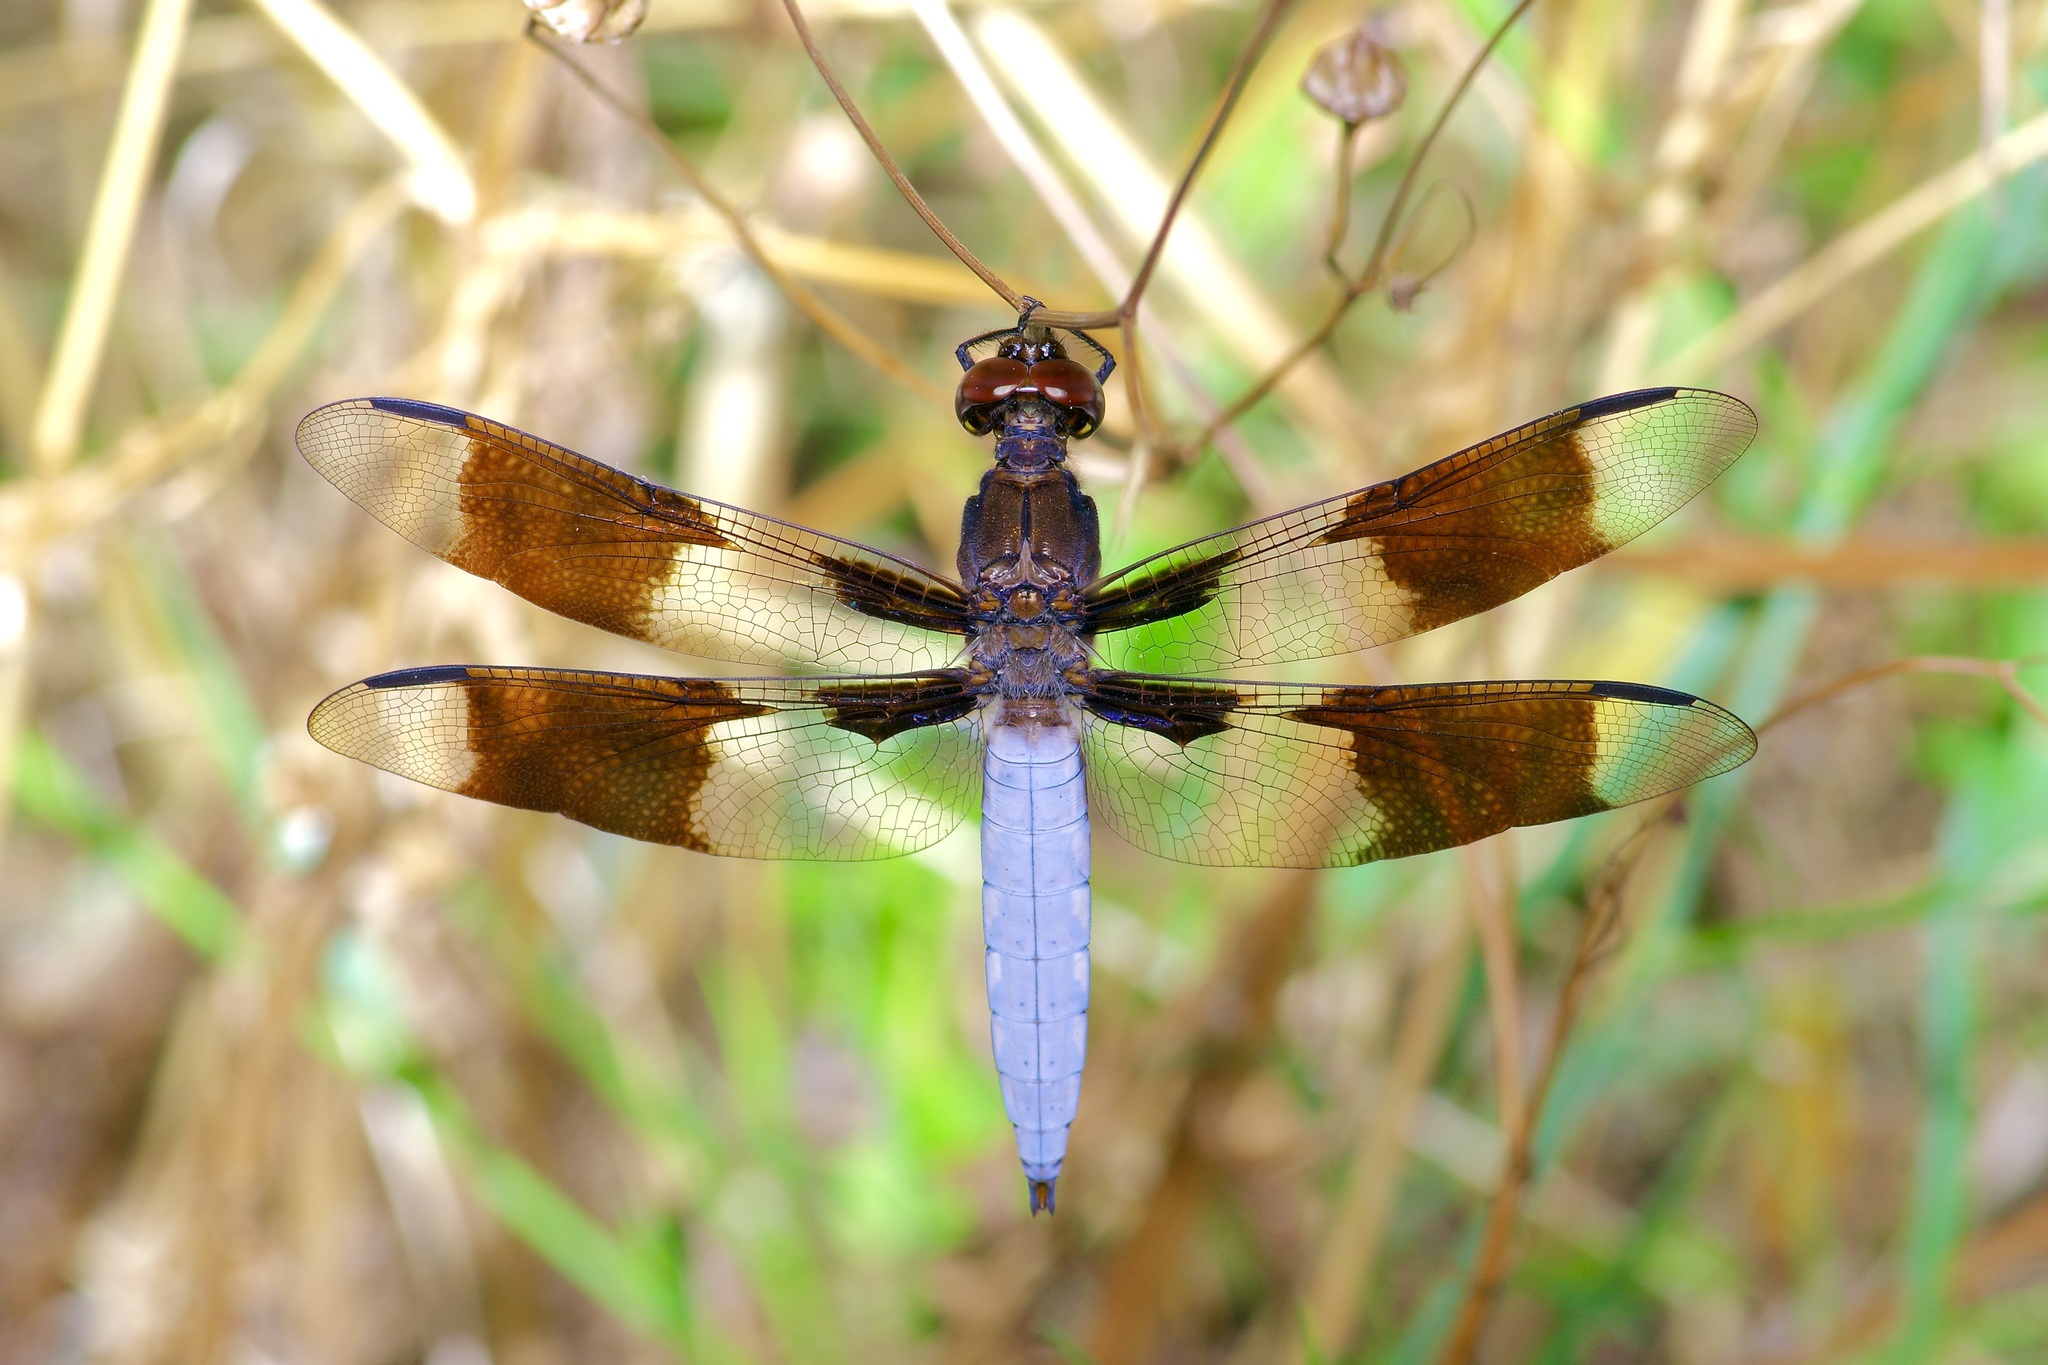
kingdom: Animalia
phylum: Arthropoda
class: Insecta
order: Odonata
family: Libellulidae
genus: Plathemis
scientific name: Plathemis lydia
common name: Common whitetail
